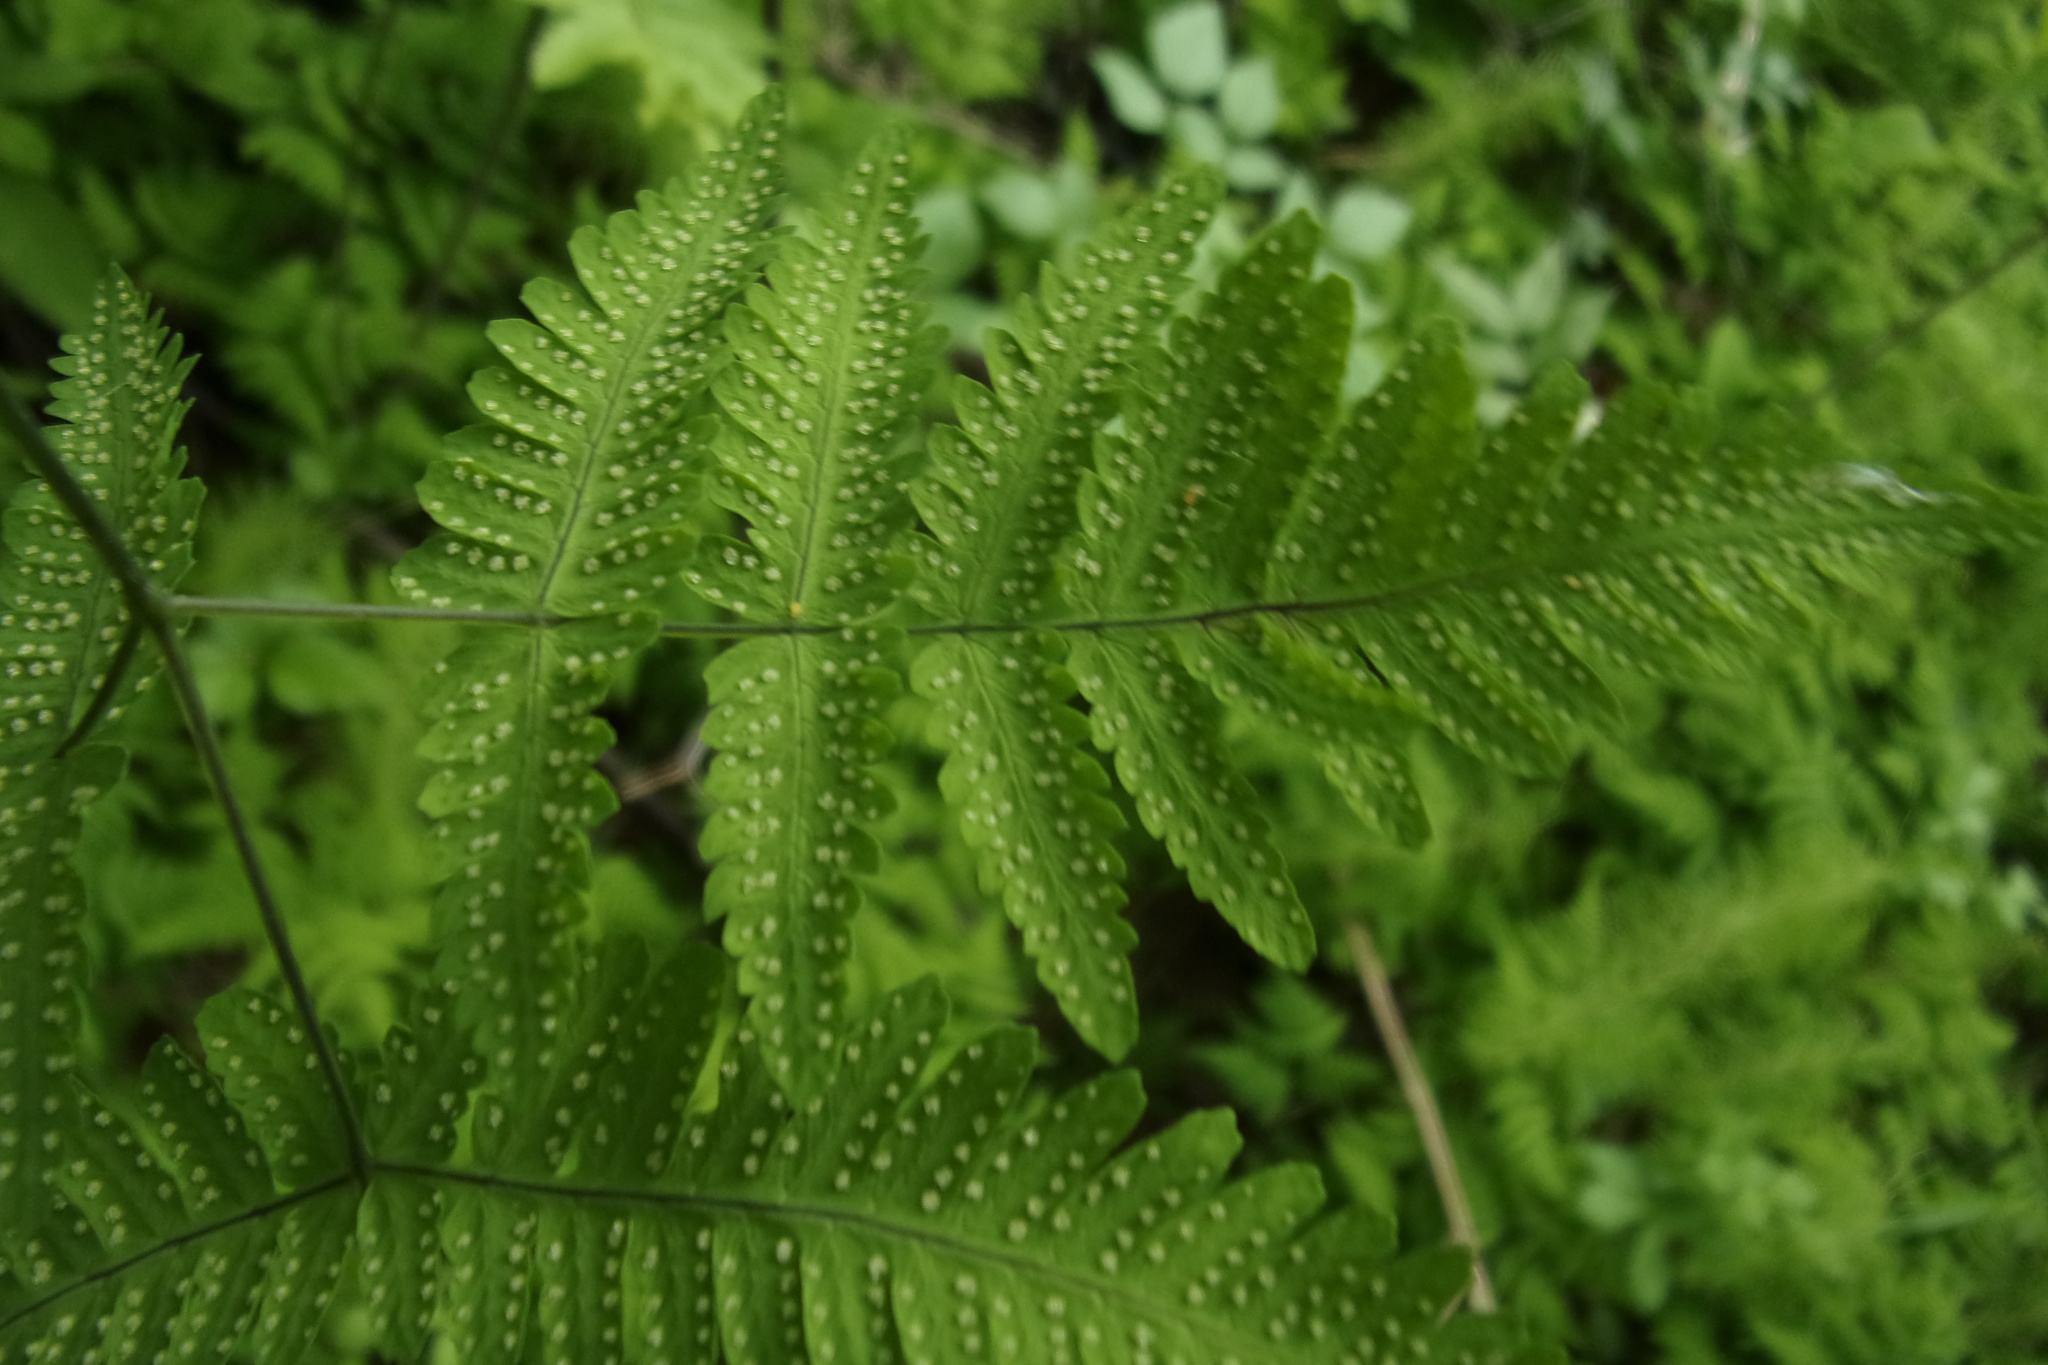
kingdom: Plantae
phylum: Tracheophyta
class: Polypodiopsida
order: Polypodiales
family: Cystopteridaceae
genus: Gymnocarpium
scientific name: Gymnocarpium dryopteris
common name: Oak fern
